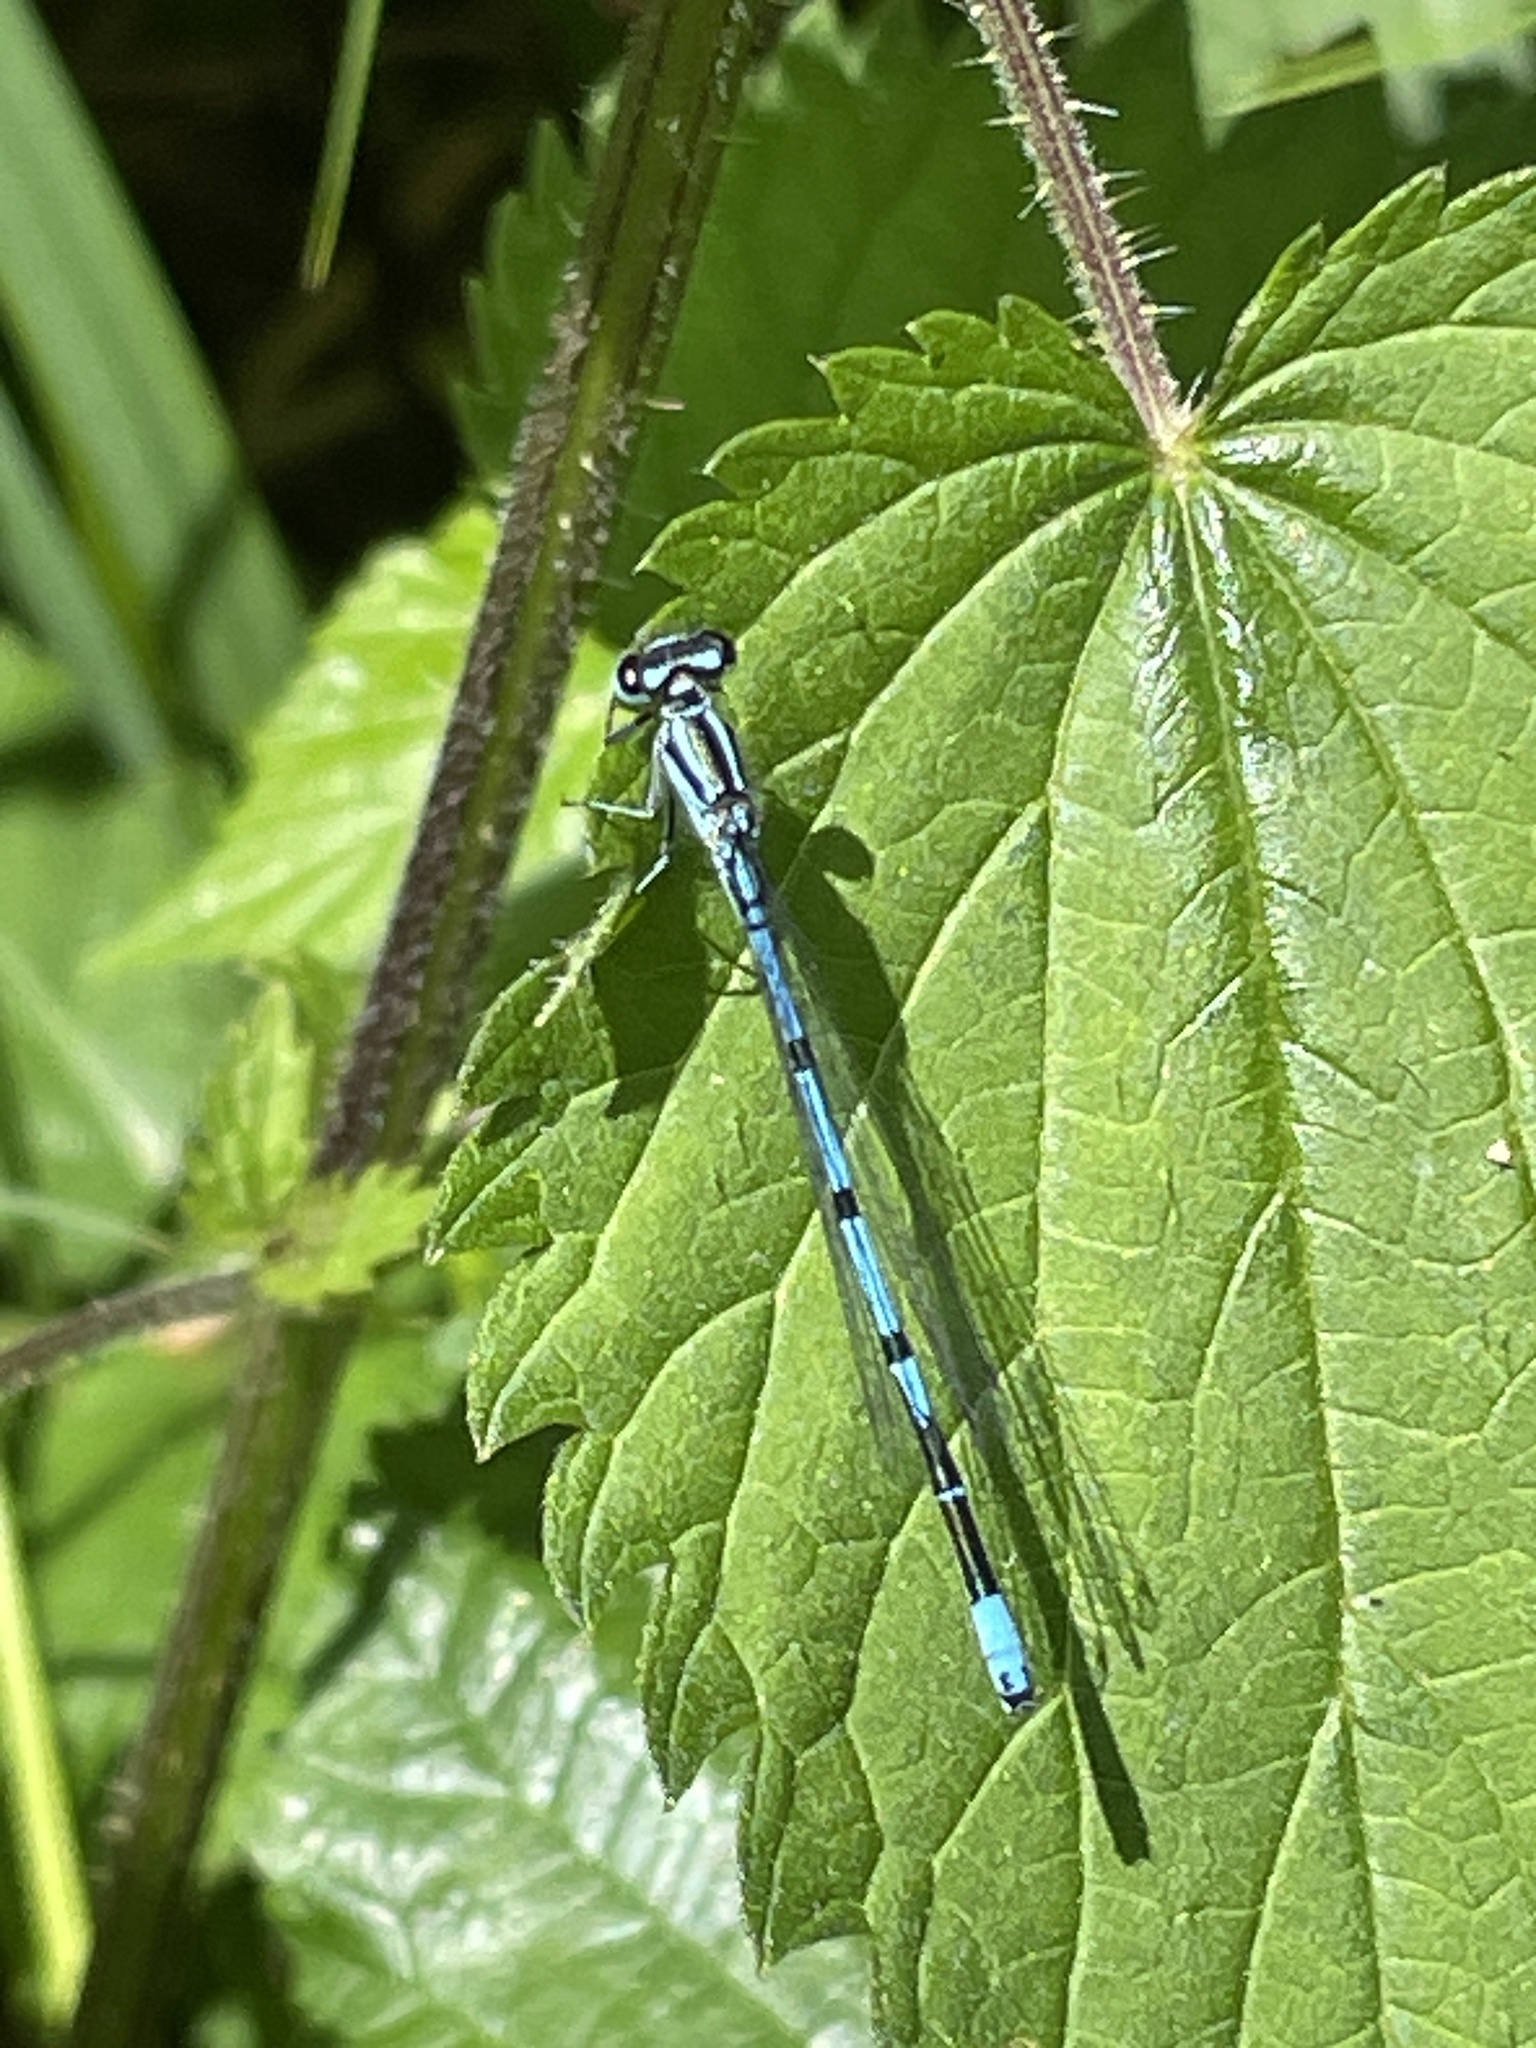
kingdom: Animalia
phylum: Arthropoda
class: Insecta
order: Odonata
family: Coenagrionidae
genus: Coenagrion
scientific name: Coenagrion puella
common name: Azure damselfly
